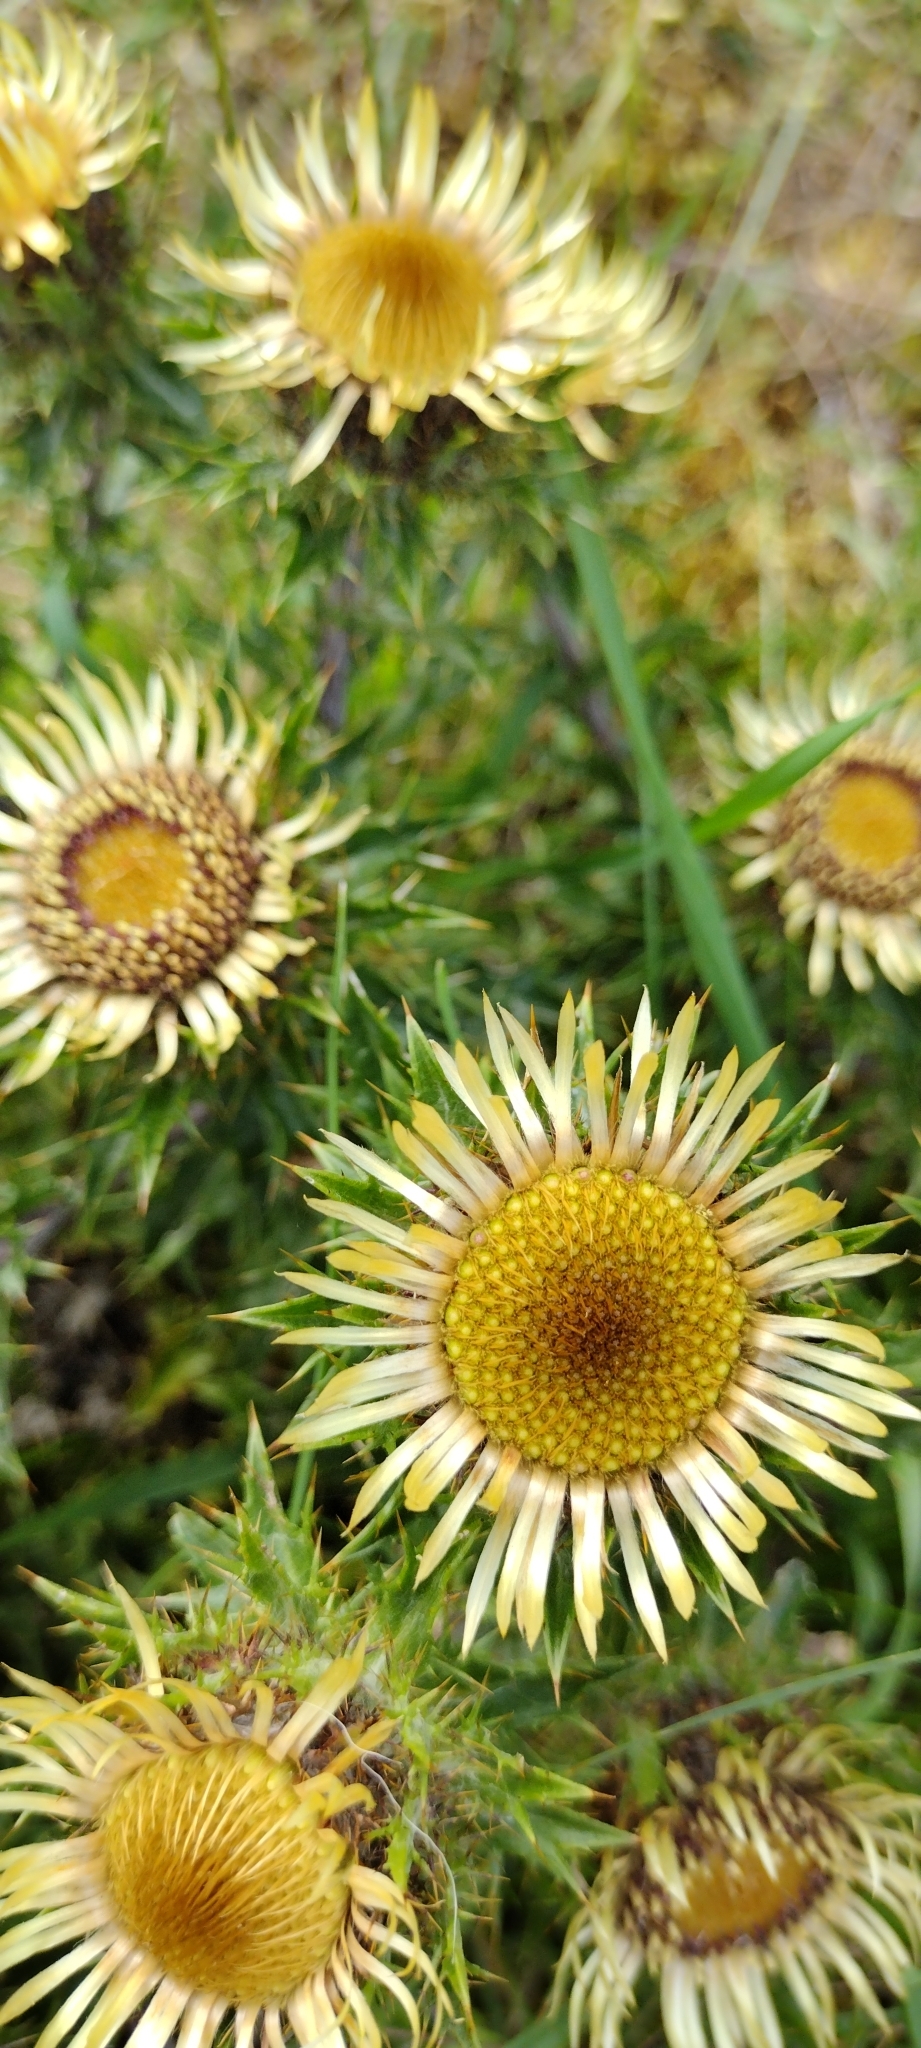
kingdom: Plantae
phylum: Tracheophyta
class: Magnoliopsida
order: Asterales
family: Asteraceae
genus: Carlina
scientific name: Carlina vulgaris
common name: Carline thistle
